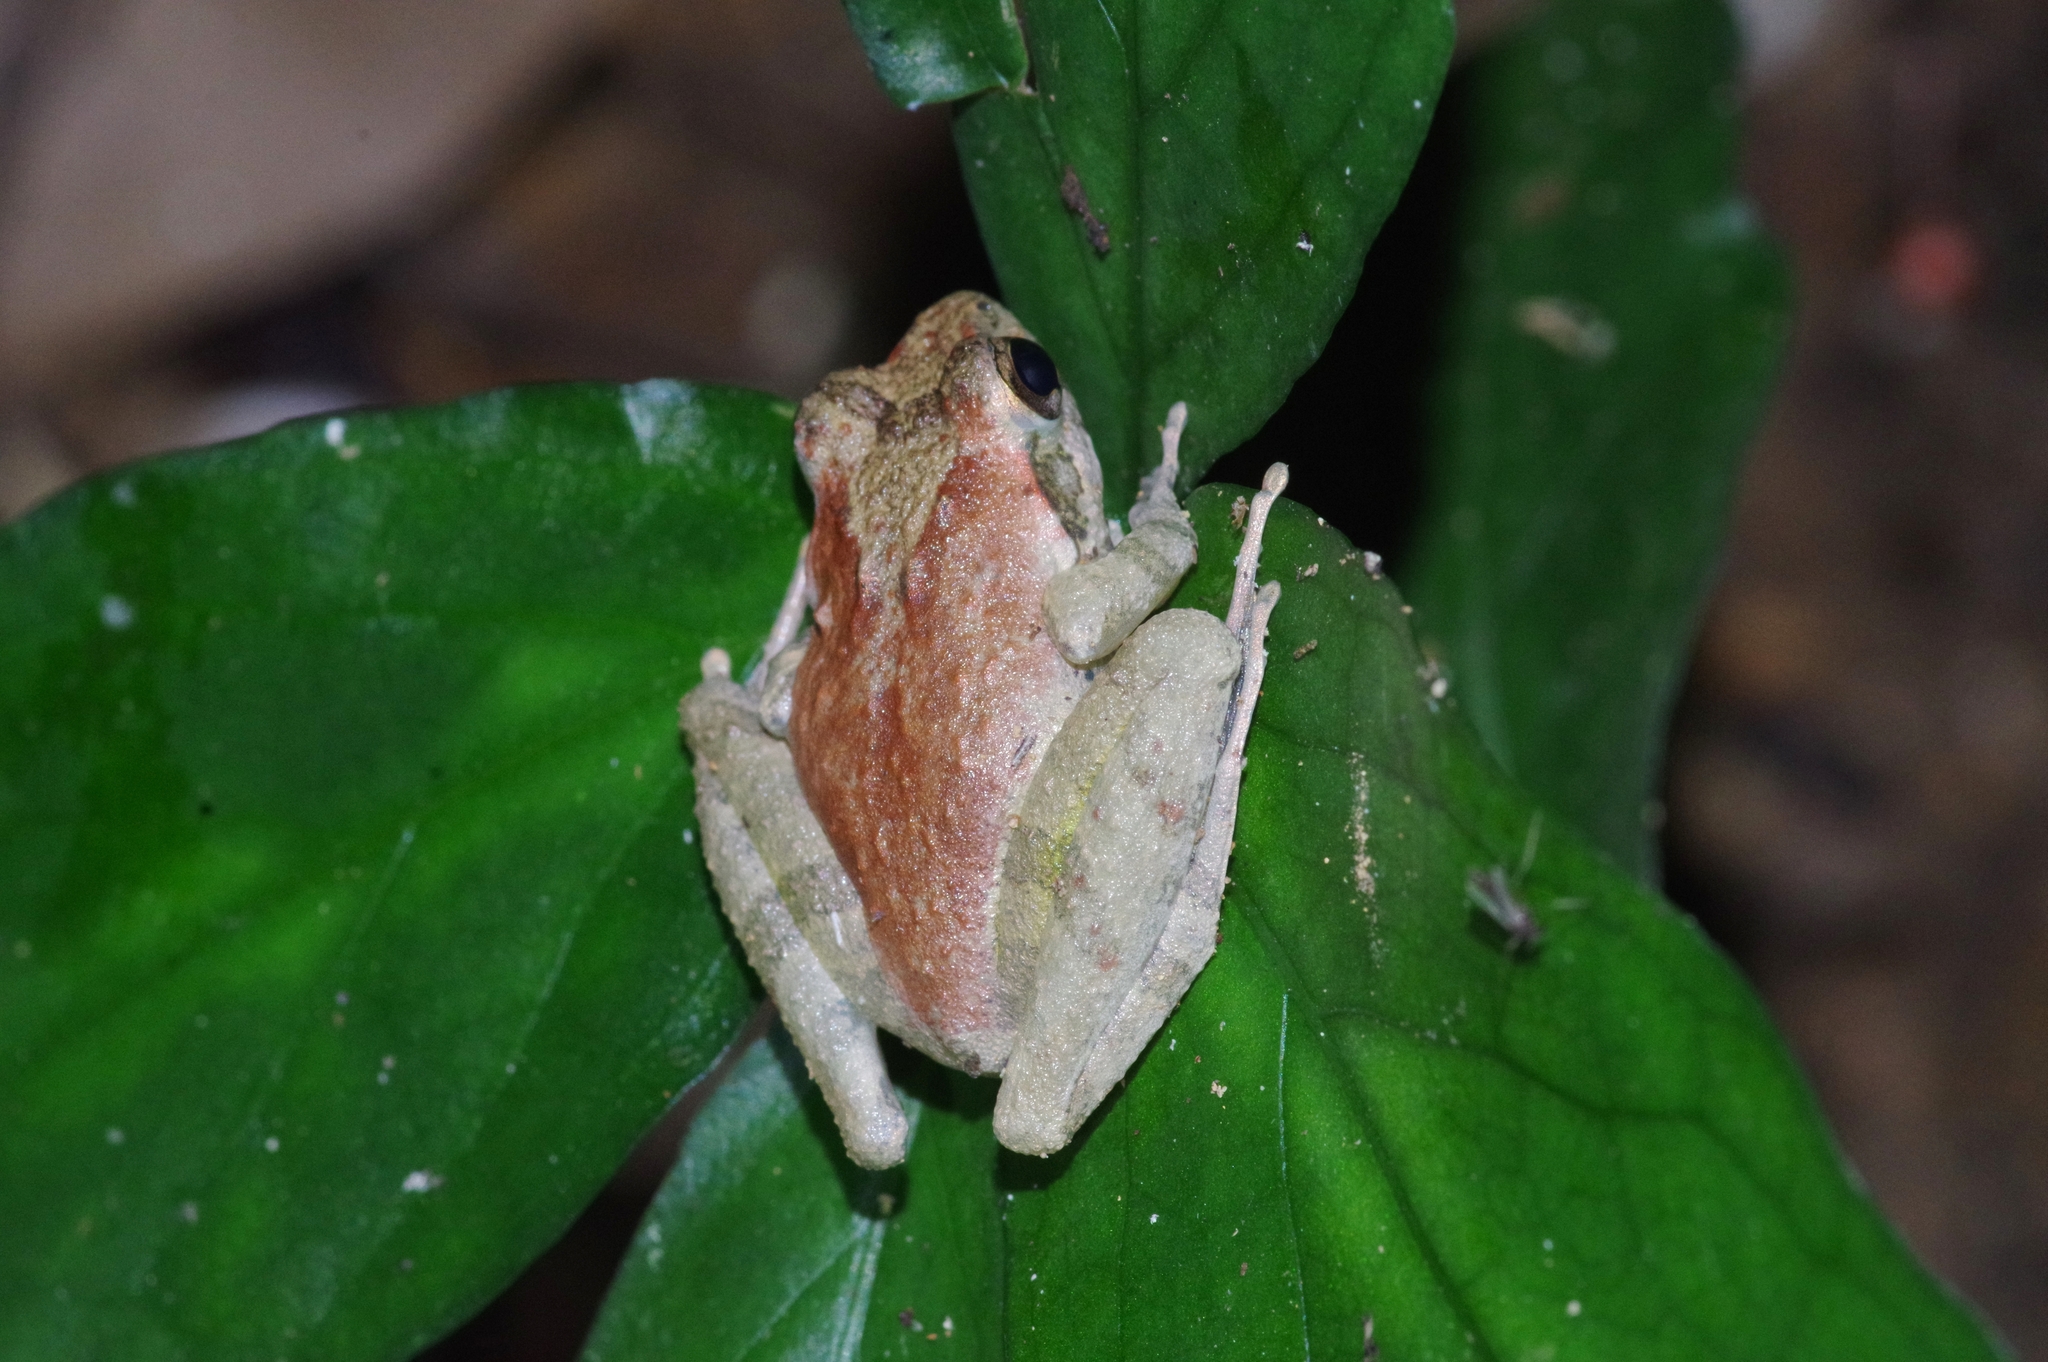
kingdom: Animalia
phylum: Chordata
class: Amphibia
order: Anura
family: Rhacophoridae
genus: Buergeria
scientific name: Buergeria japonica
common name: Japanese buerger's frog
